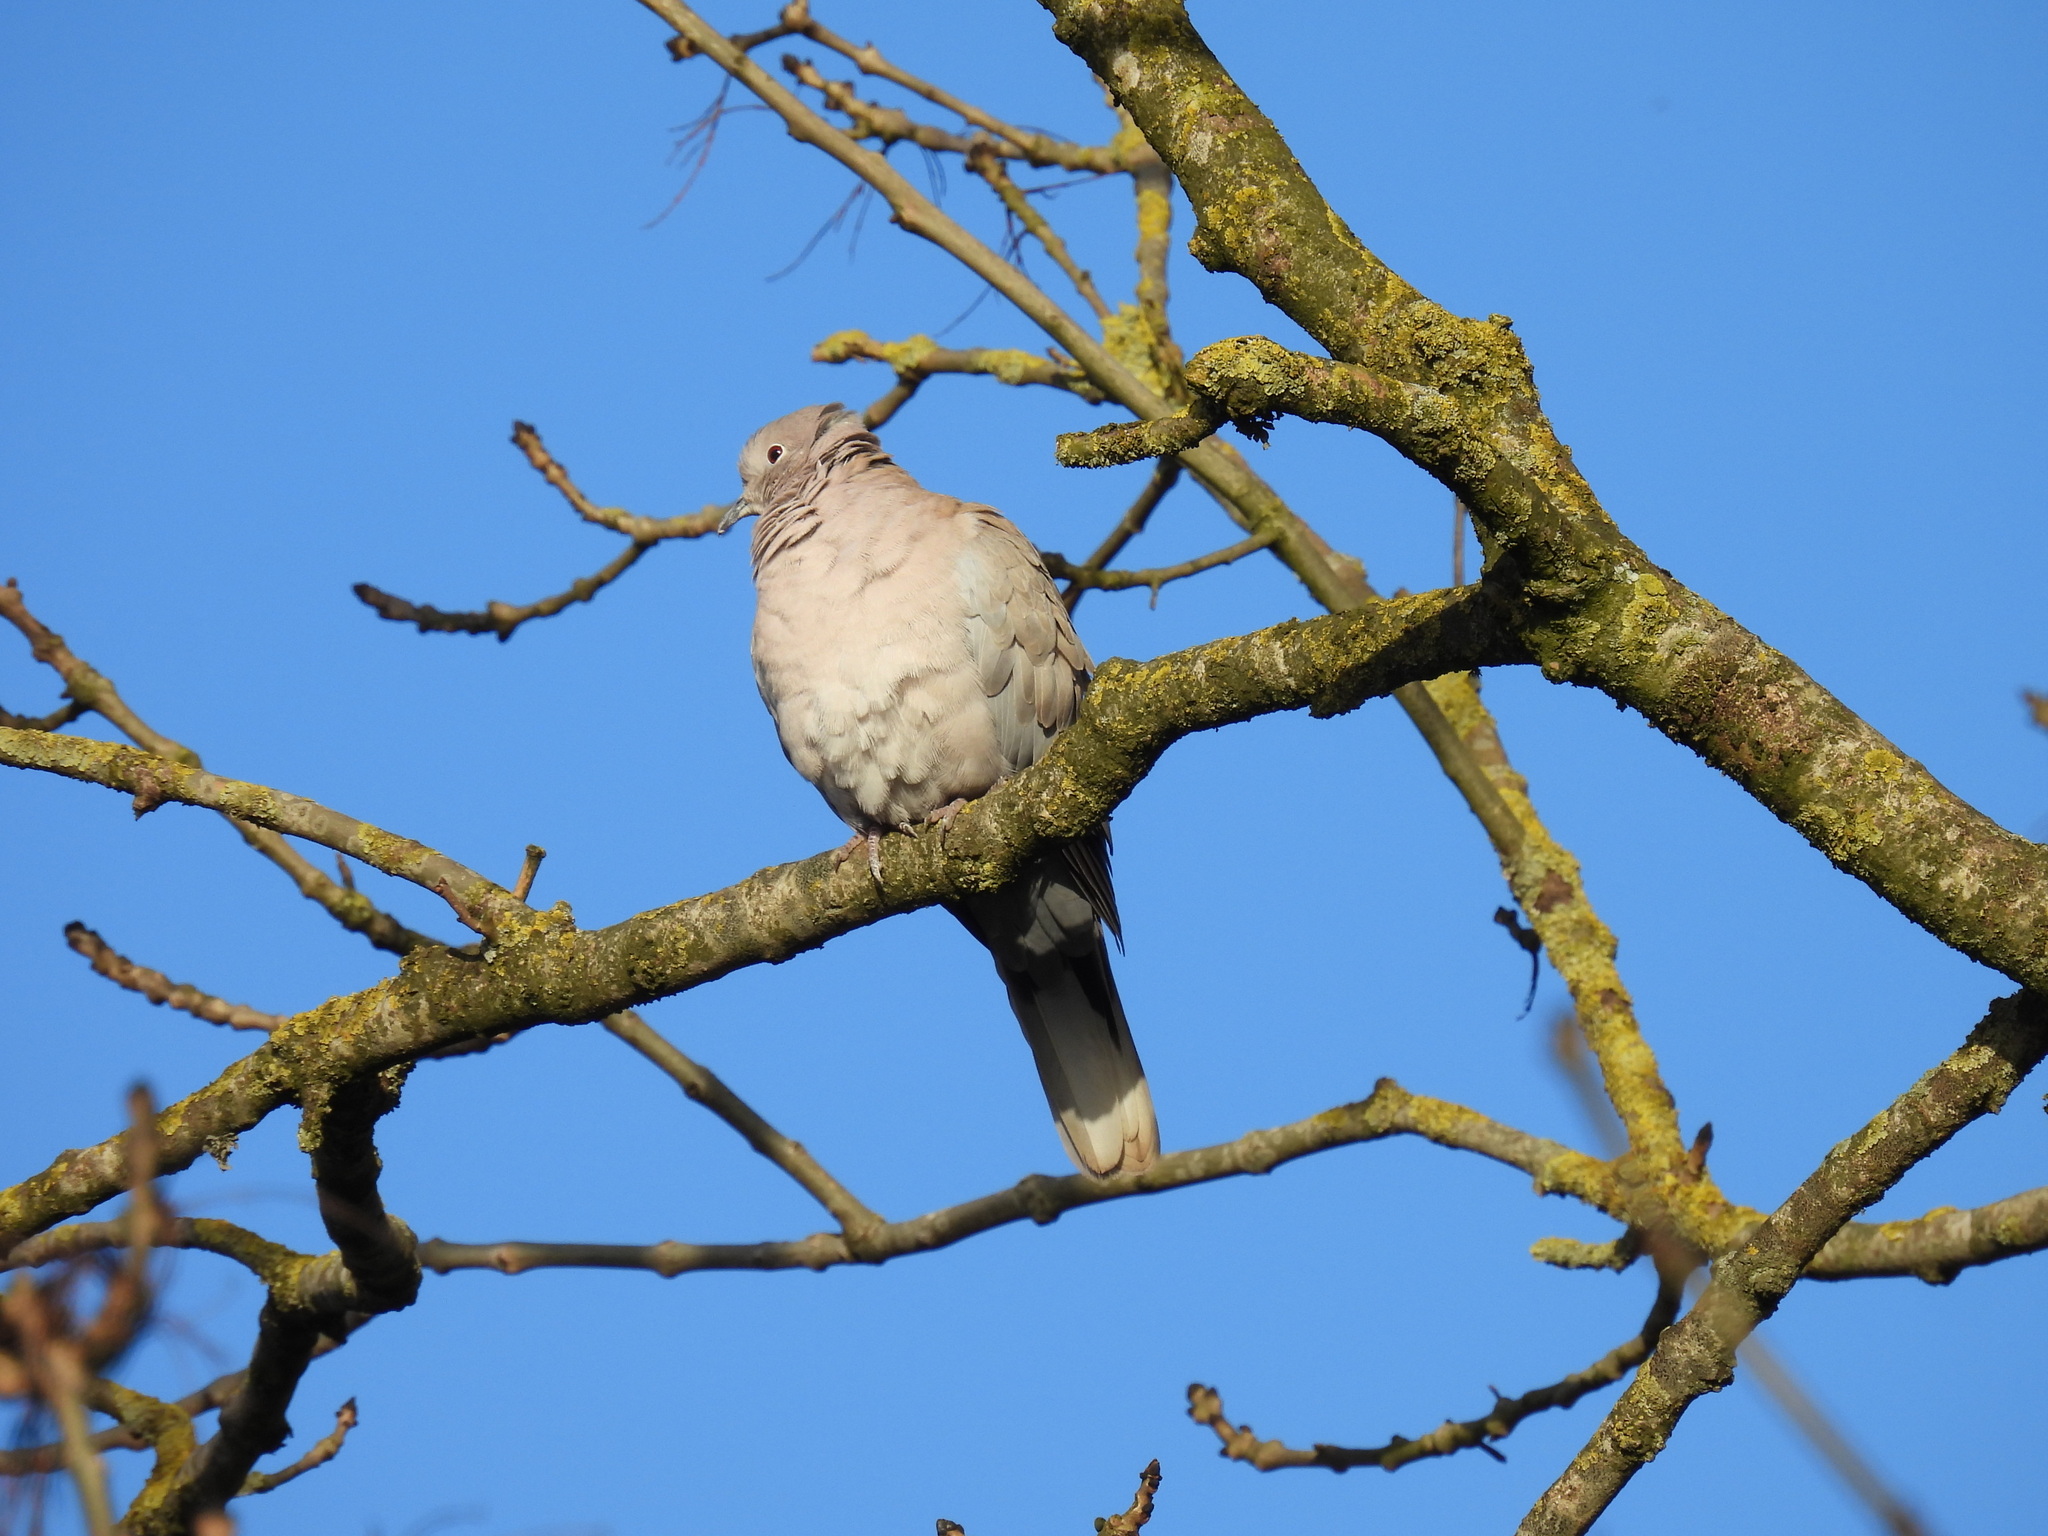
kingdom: Animalia
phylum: Chordata
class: Aves
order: Columbiformes
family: Columbidae
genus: Streptopelia
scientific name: Streptopelia decaocto
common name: Eurasian collared dove
